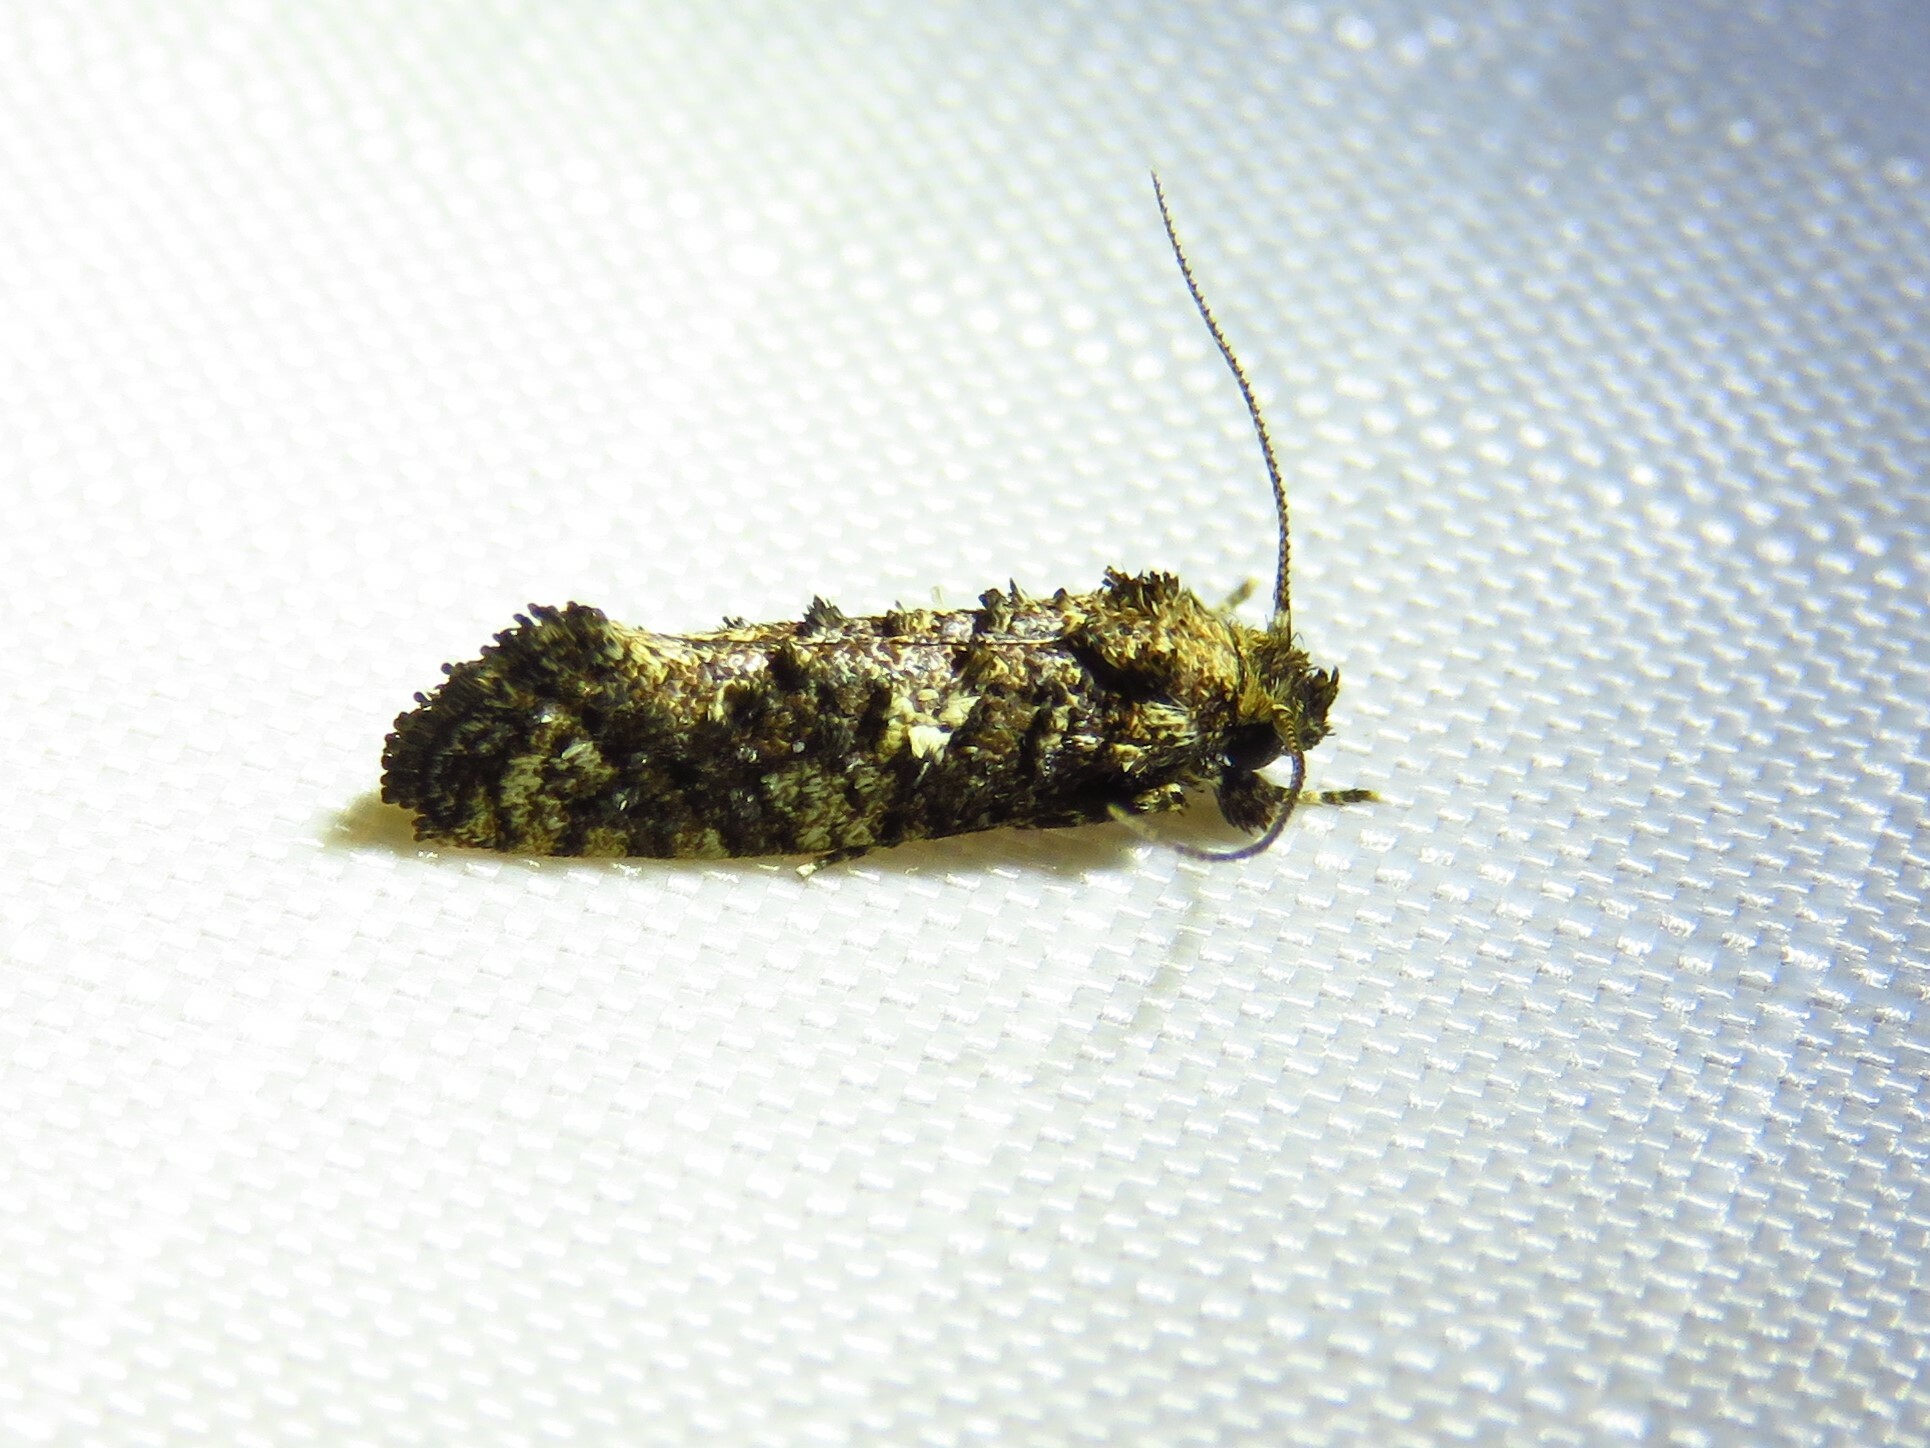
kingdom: Animalia
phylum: Arthropoda
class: Insecta
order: Lepidoptera
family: Tineidae
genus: Acrolophus
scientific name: Acrolophus cressoni
